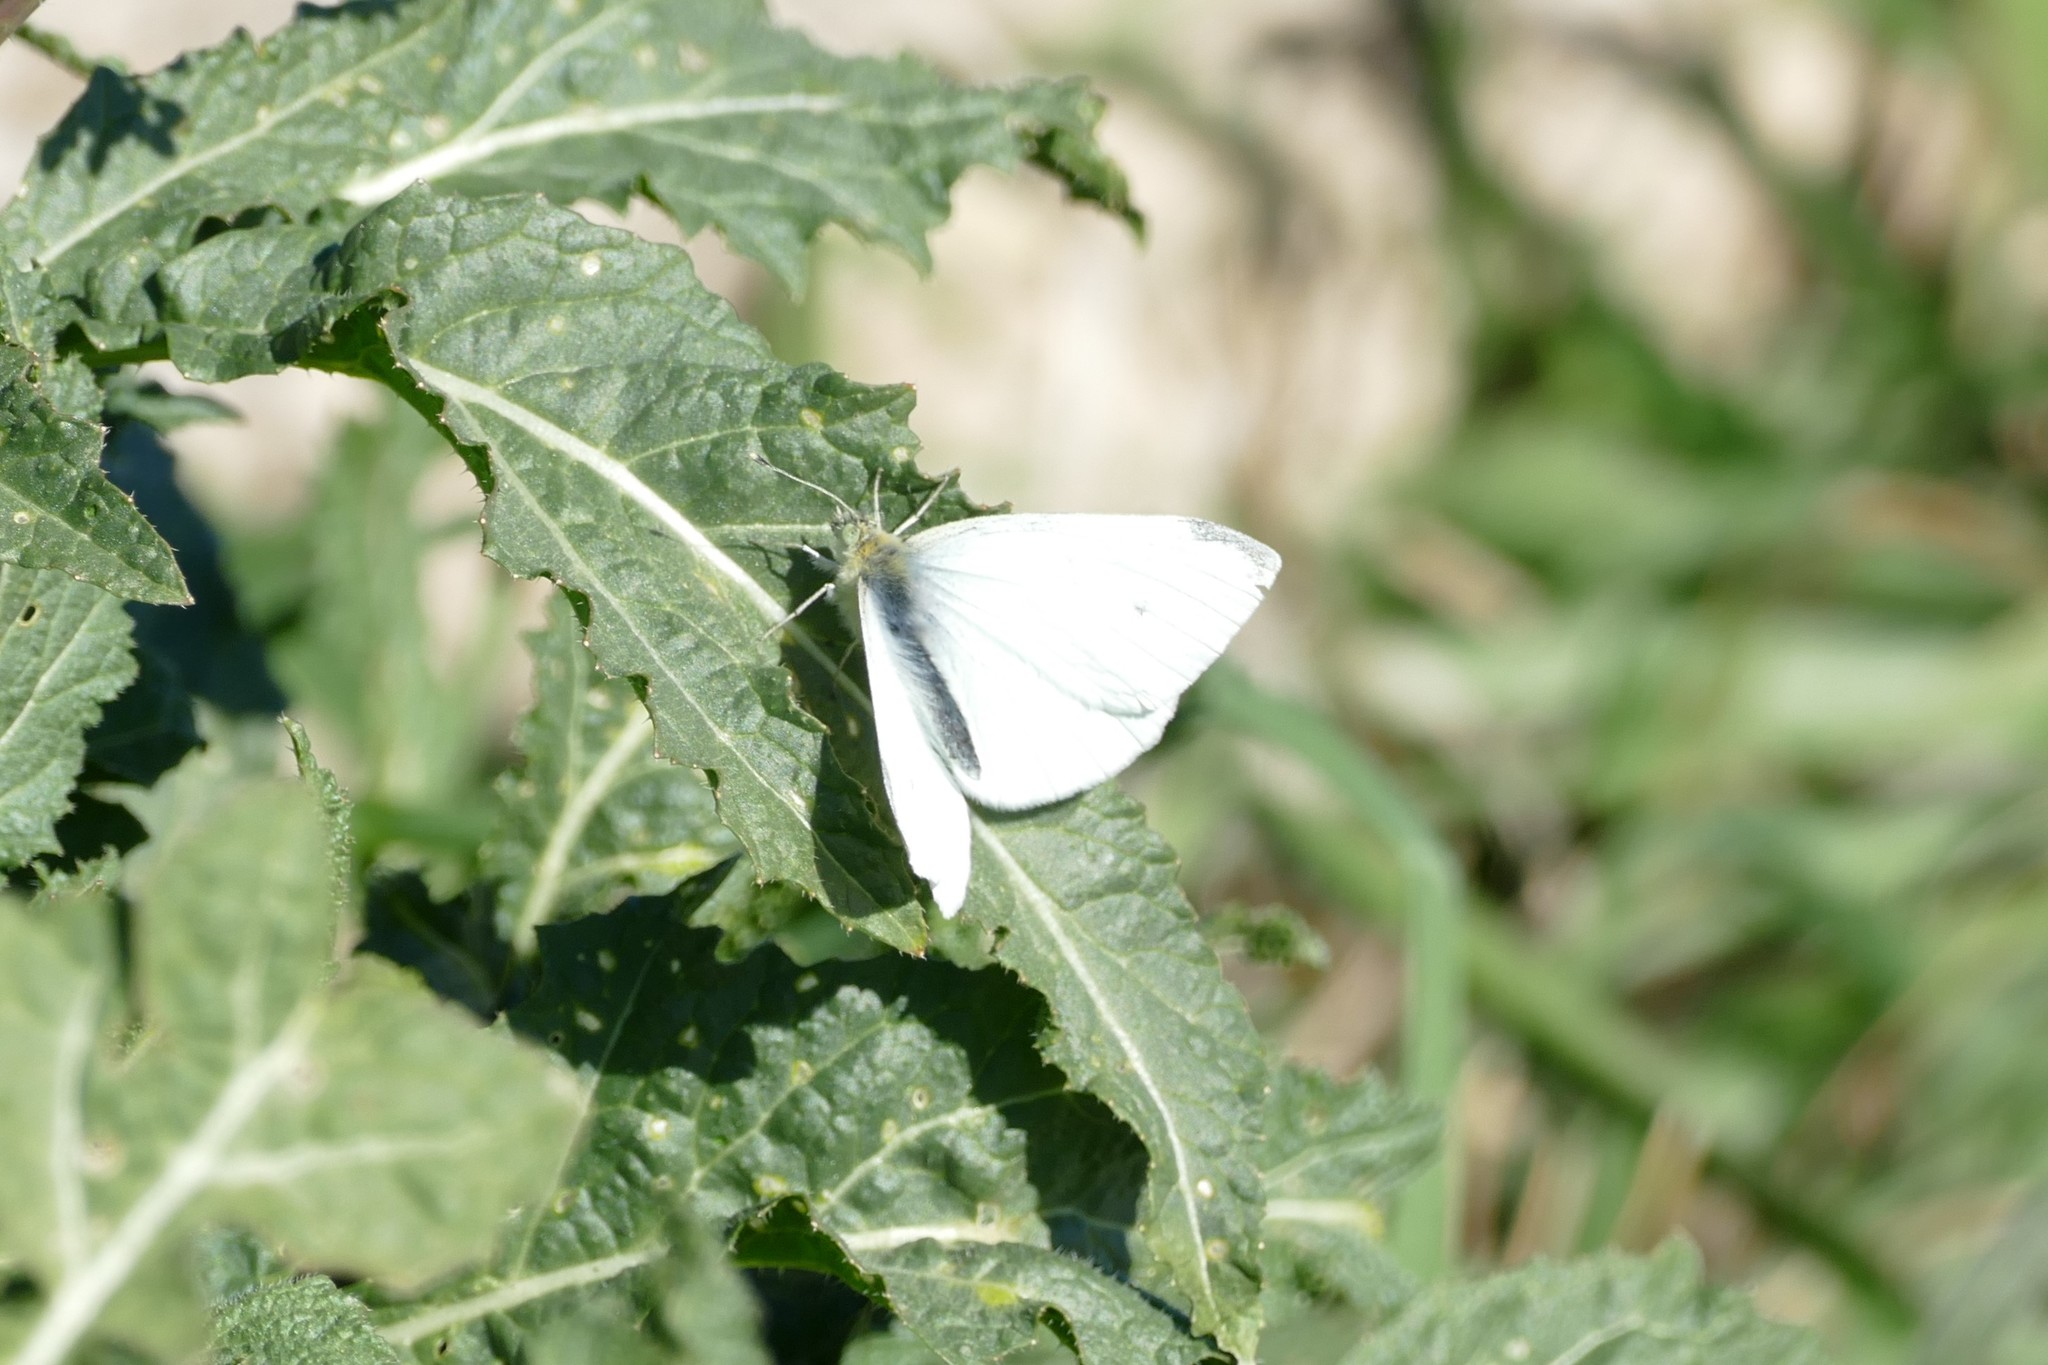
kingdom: Animalia
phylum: Arthropoda
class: Insecta
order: Lepidoptera
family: Pieridae
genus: Pieris
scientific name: Pieris rapae
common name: Small white
